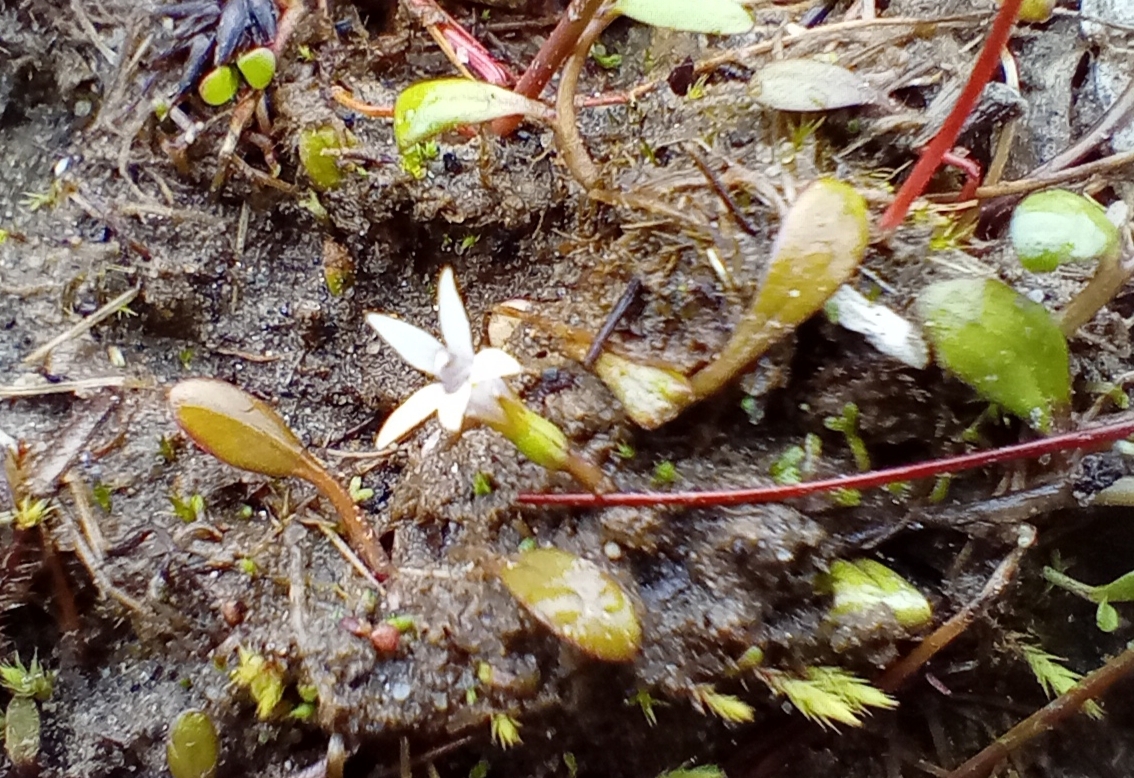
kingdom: Plantae
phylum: Tracheophyta
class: Magnoliopsida
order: Asterales
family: Campanulaceae
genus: Lobelia
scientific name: Lobelia fatiscens
